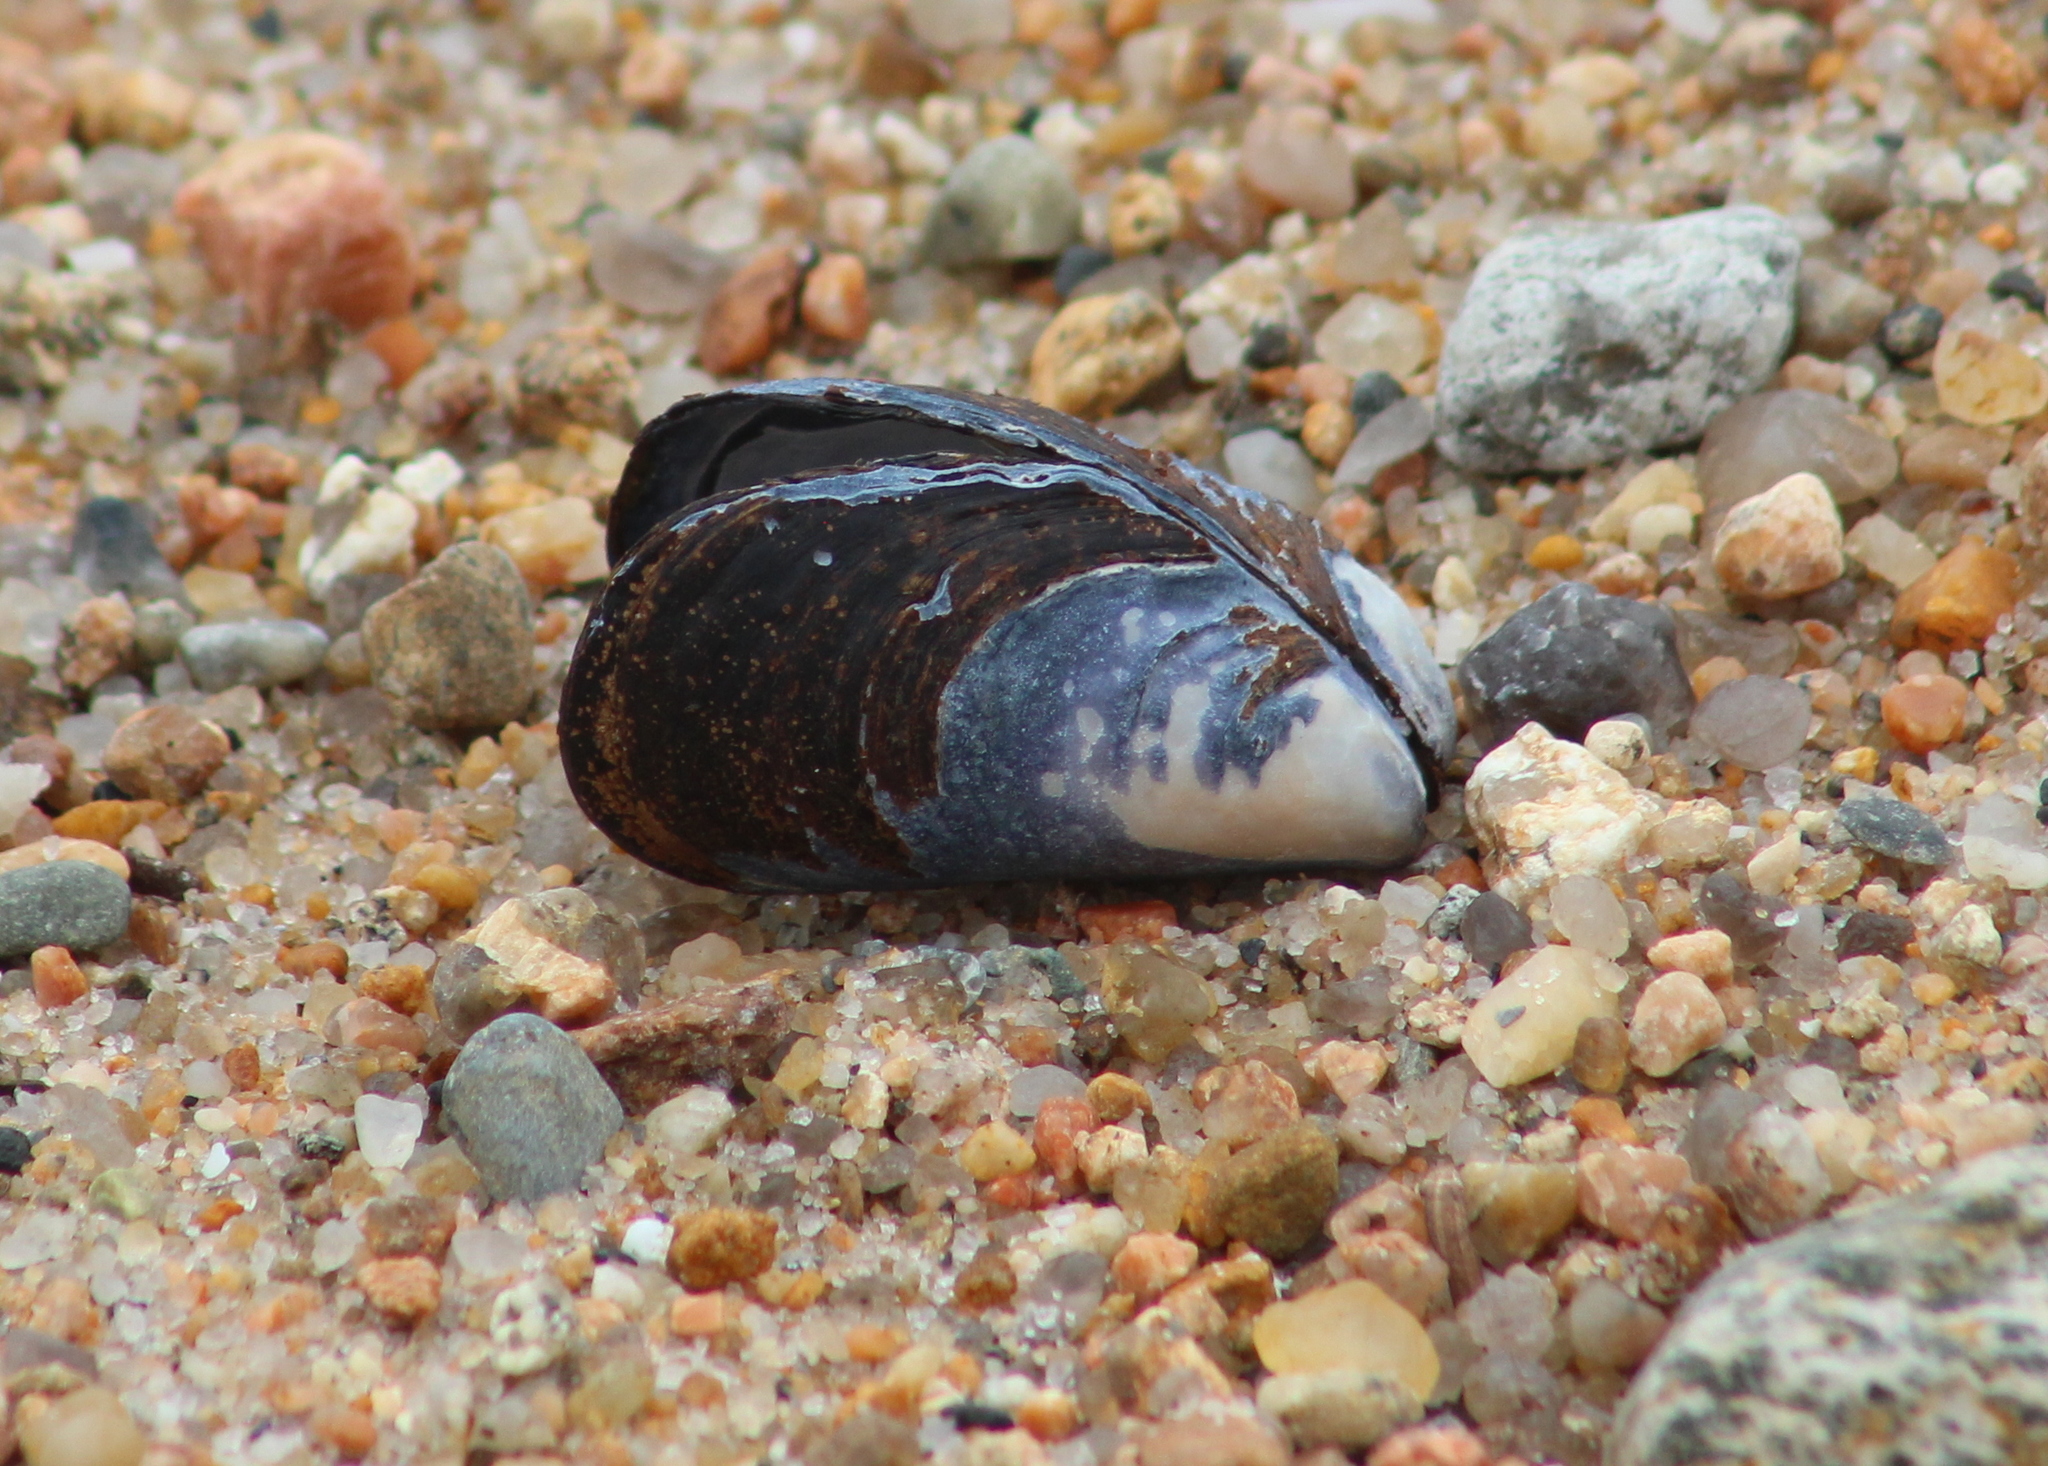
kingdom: Animalia
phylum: Mollusca
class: Bivalvia
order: Mytilida
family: Mytilidae
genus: Mytilus
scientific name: Mytilus edulis
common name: Blue mussel
